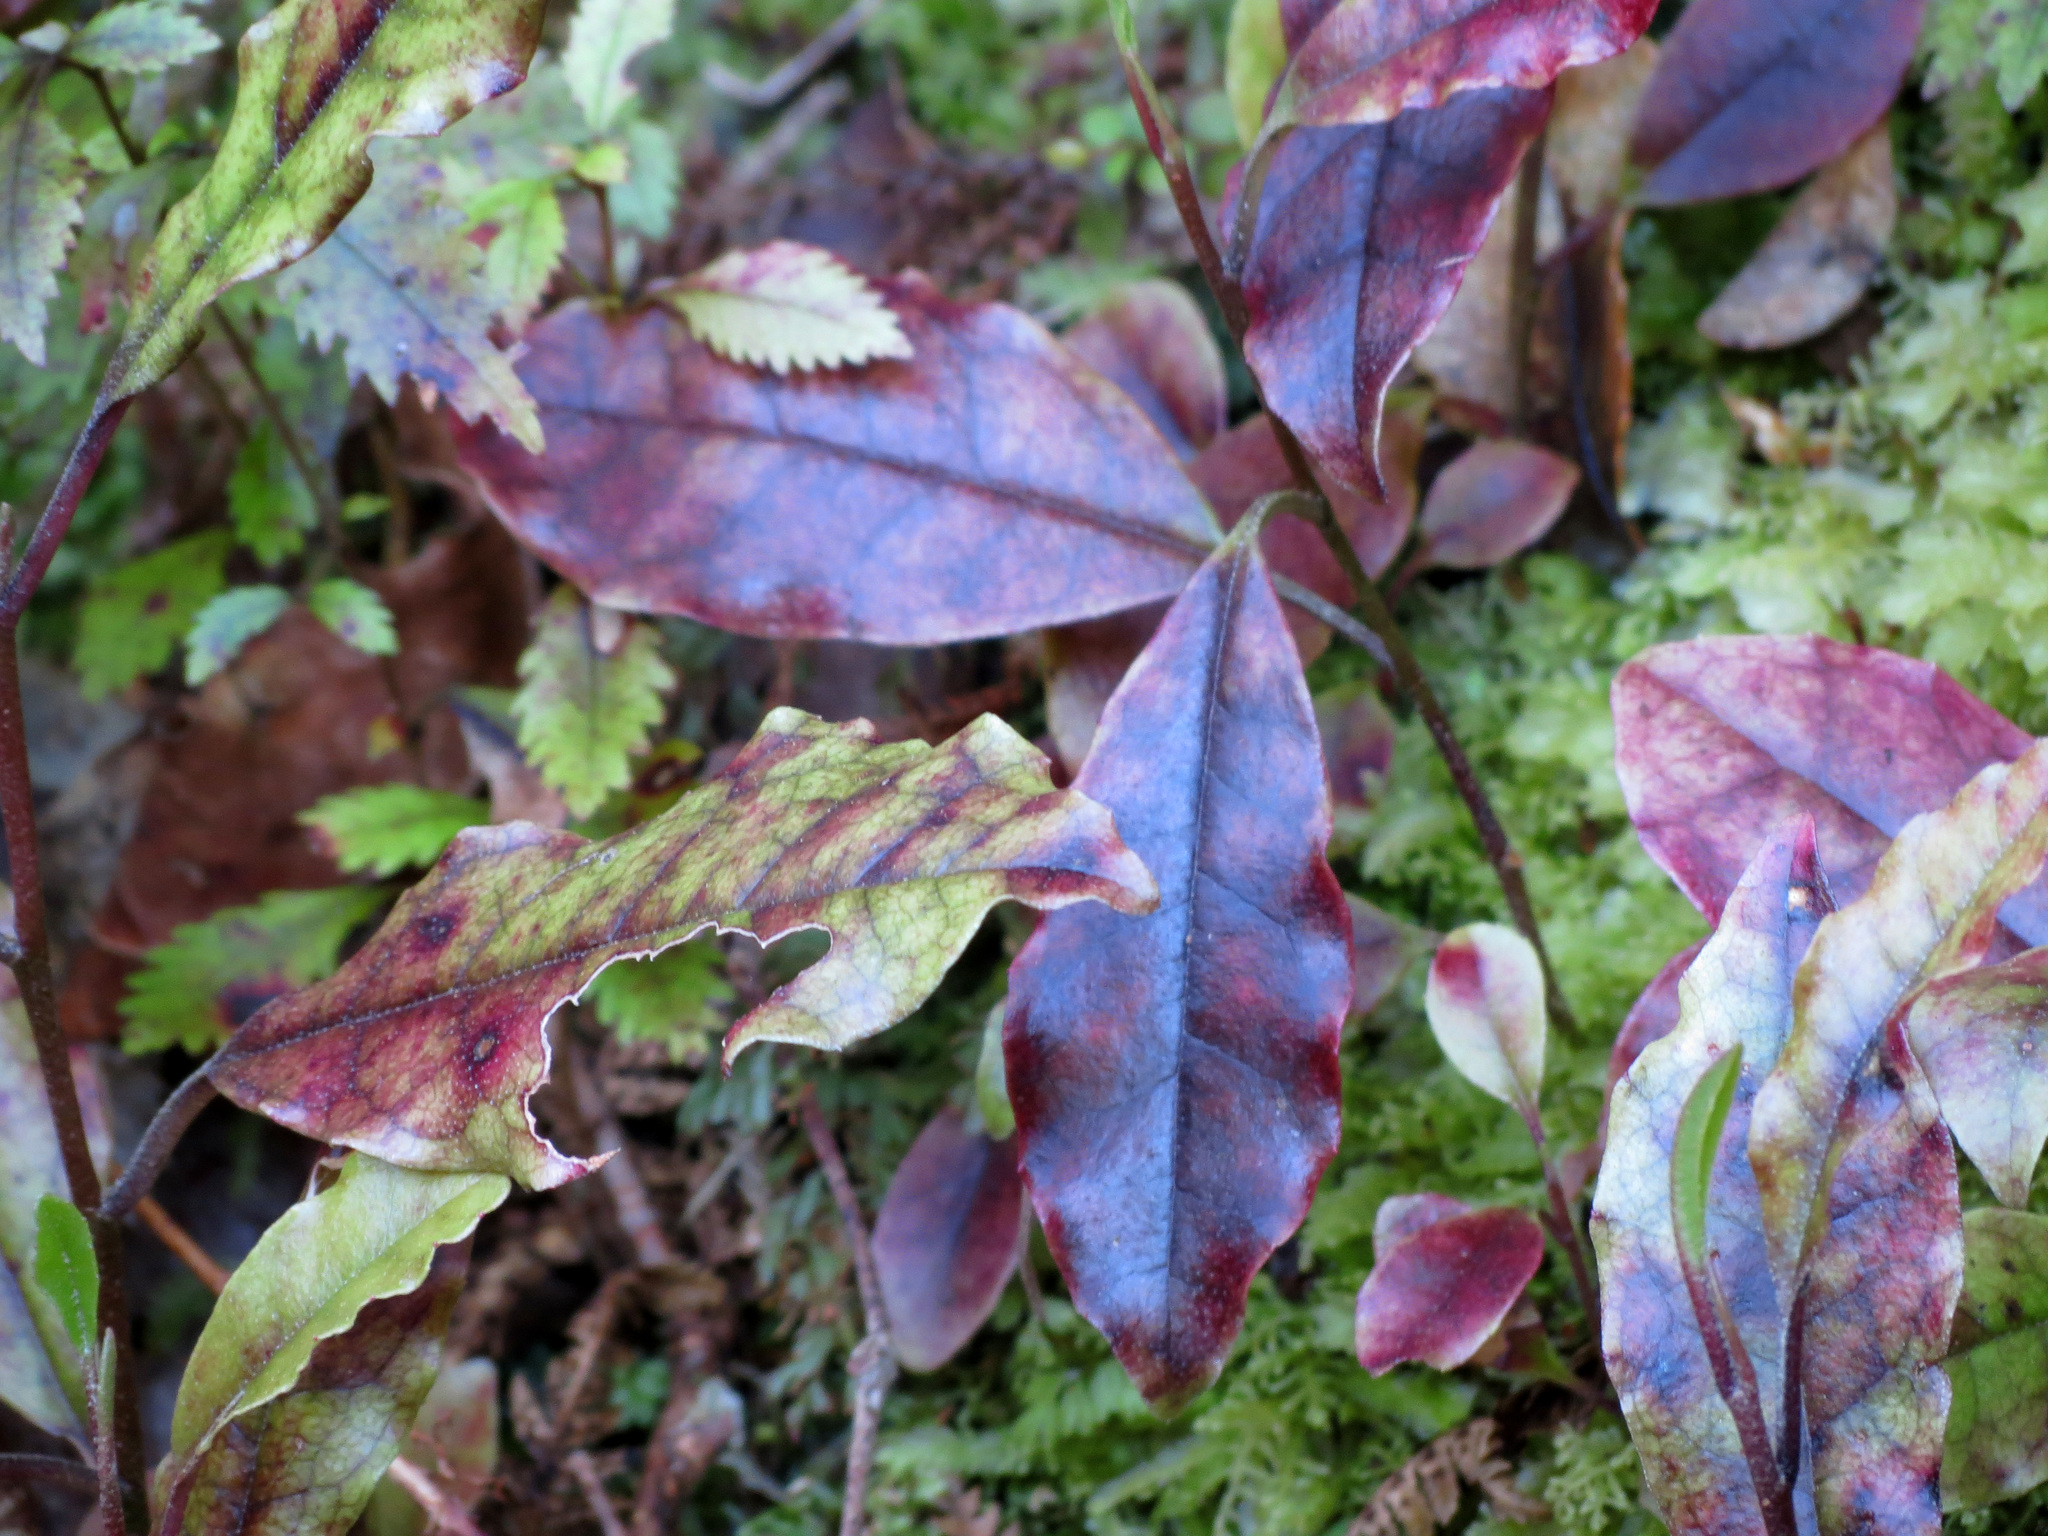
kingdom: Plantae
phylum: Tracheophyta
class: Magnoliopsida
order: Paracryphiales
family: Paracryphiaceae
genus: Quintinia
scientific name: Quintinia serrata
